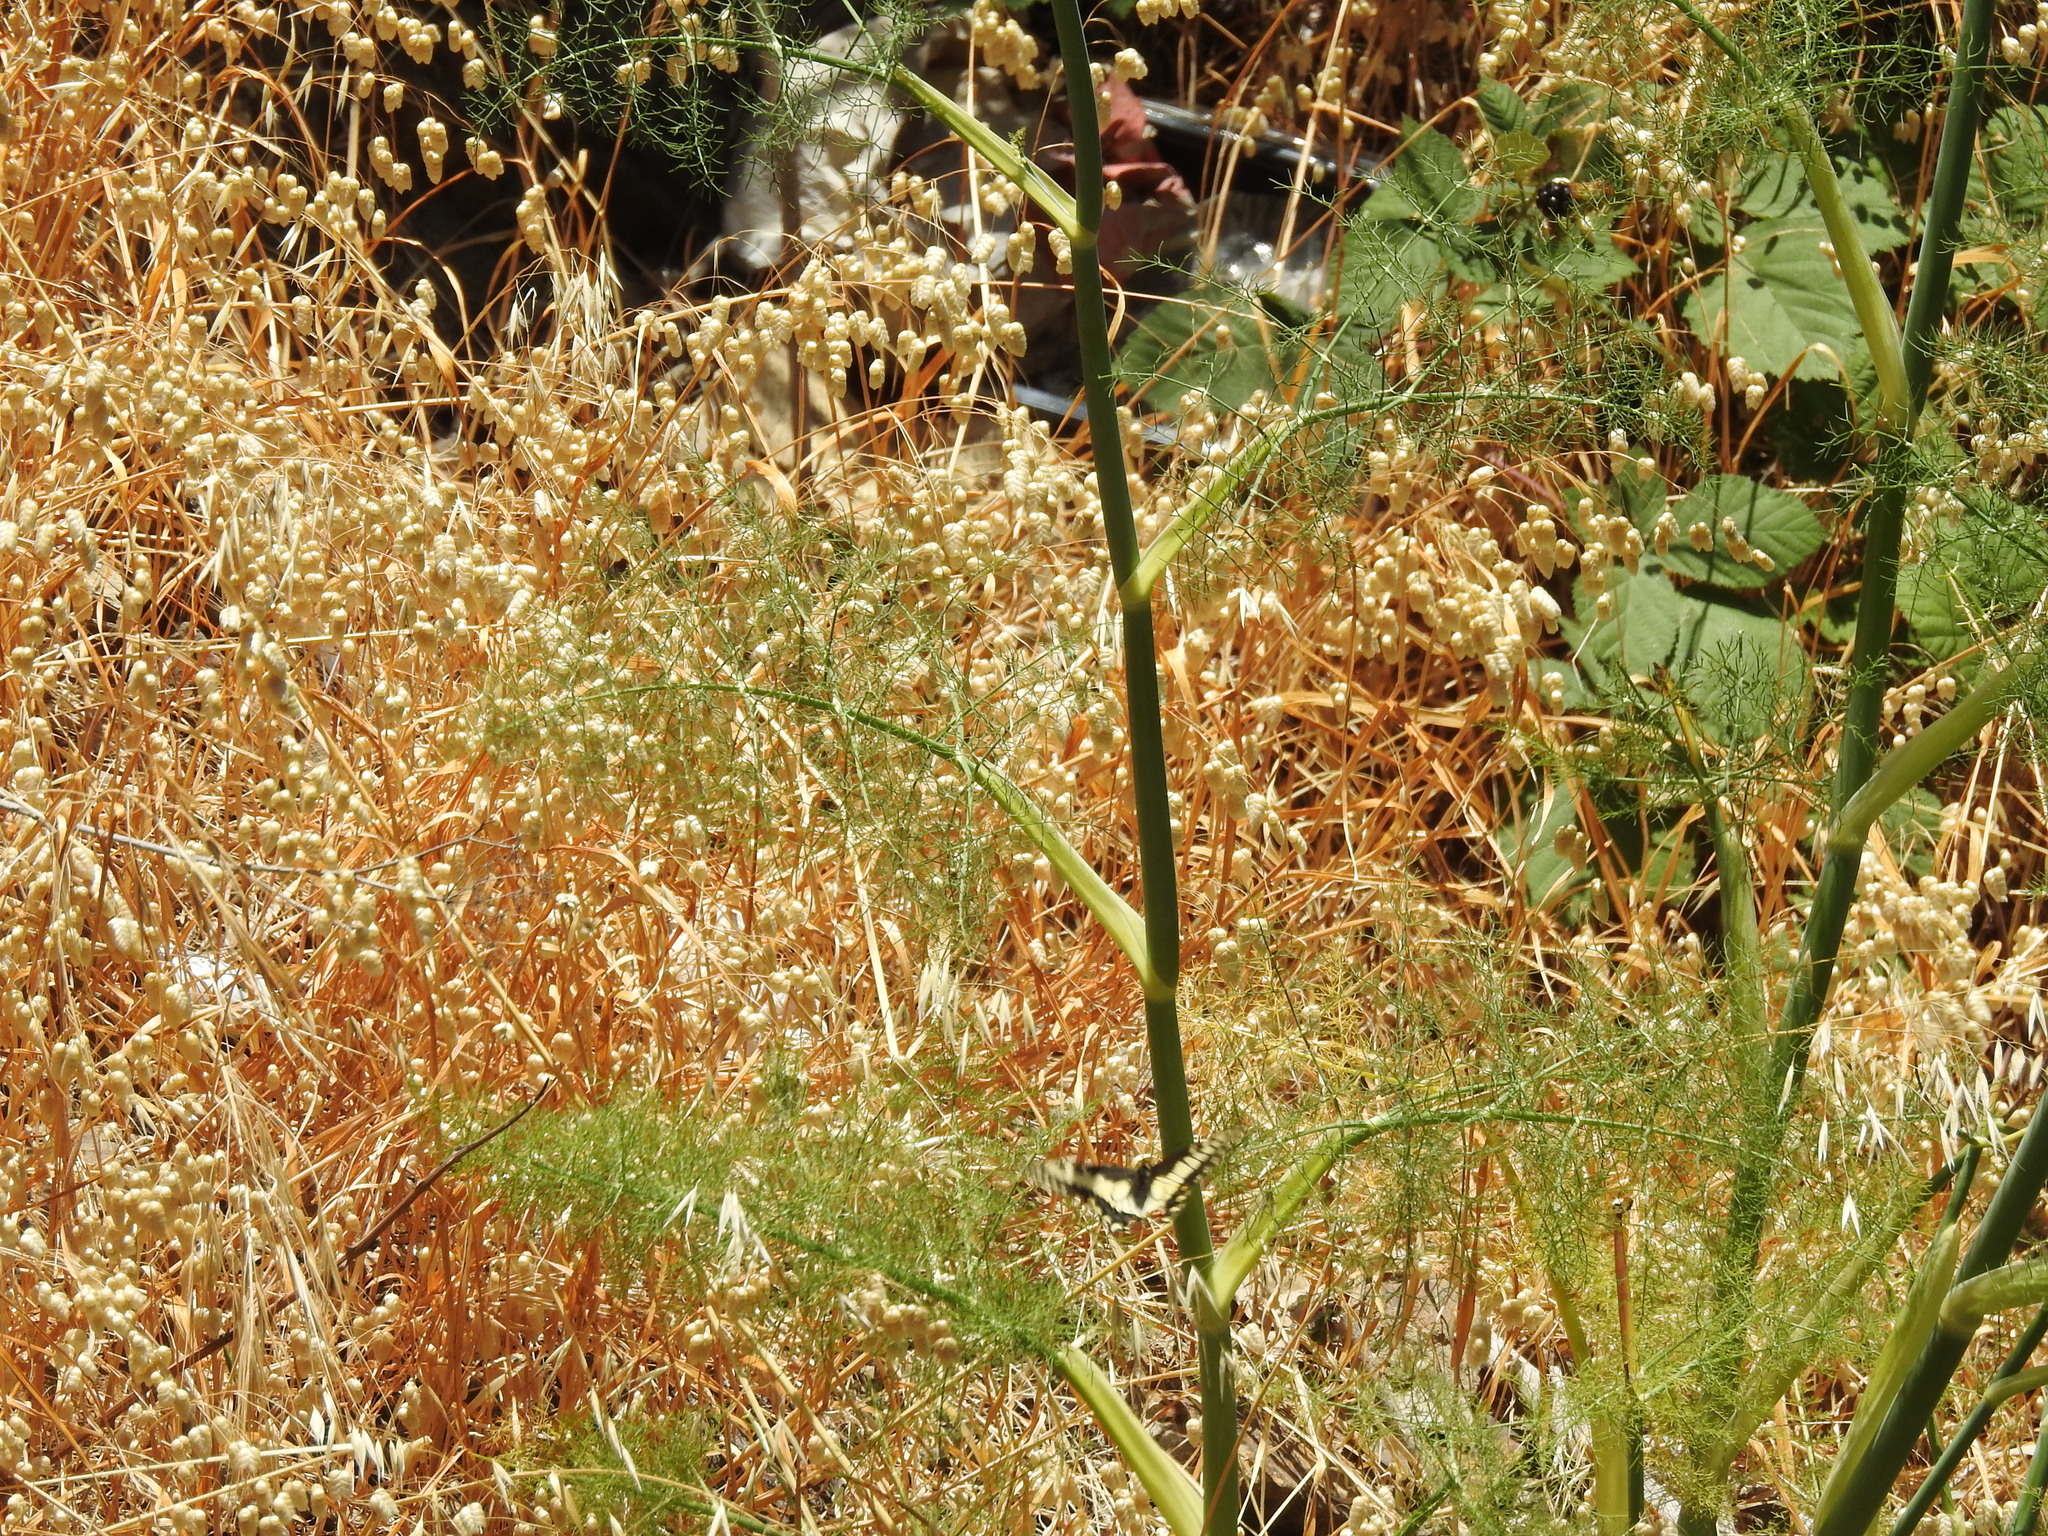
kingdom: Plantae
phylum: Tracheophyta
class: Liliopsida
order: Poales
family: Poaceae
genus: Briza
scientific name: Briza maxima
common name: Big quakinggrass
